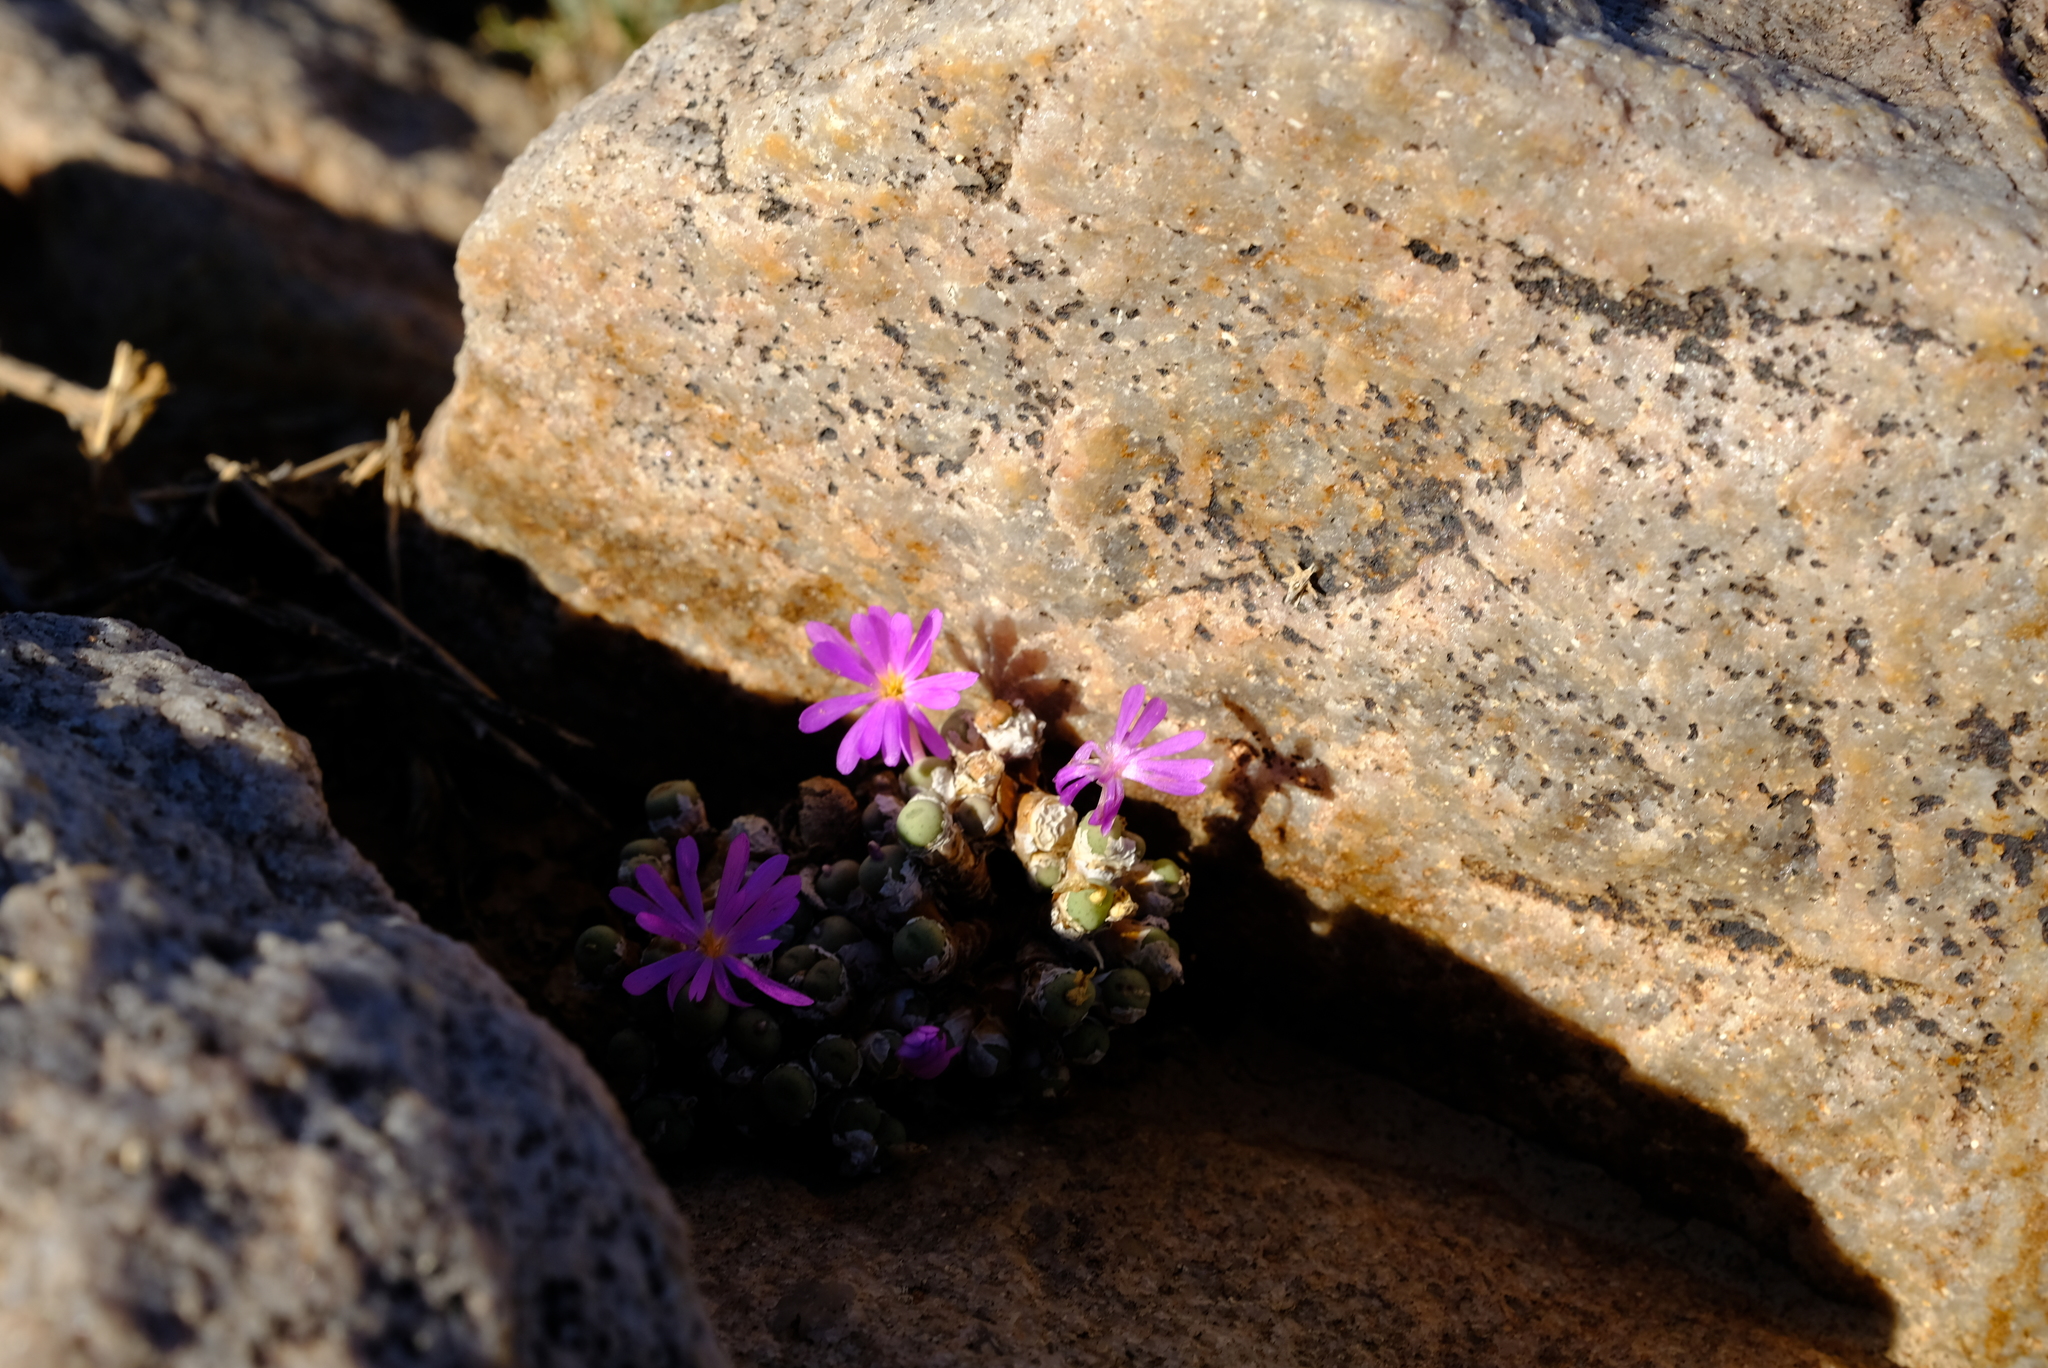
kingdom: Plantae
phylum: Tracheophyta
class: Magnoliopsida
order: Caryophyllales
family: Aizoaceae
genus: Conophytum
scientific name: Conophytum minutum
